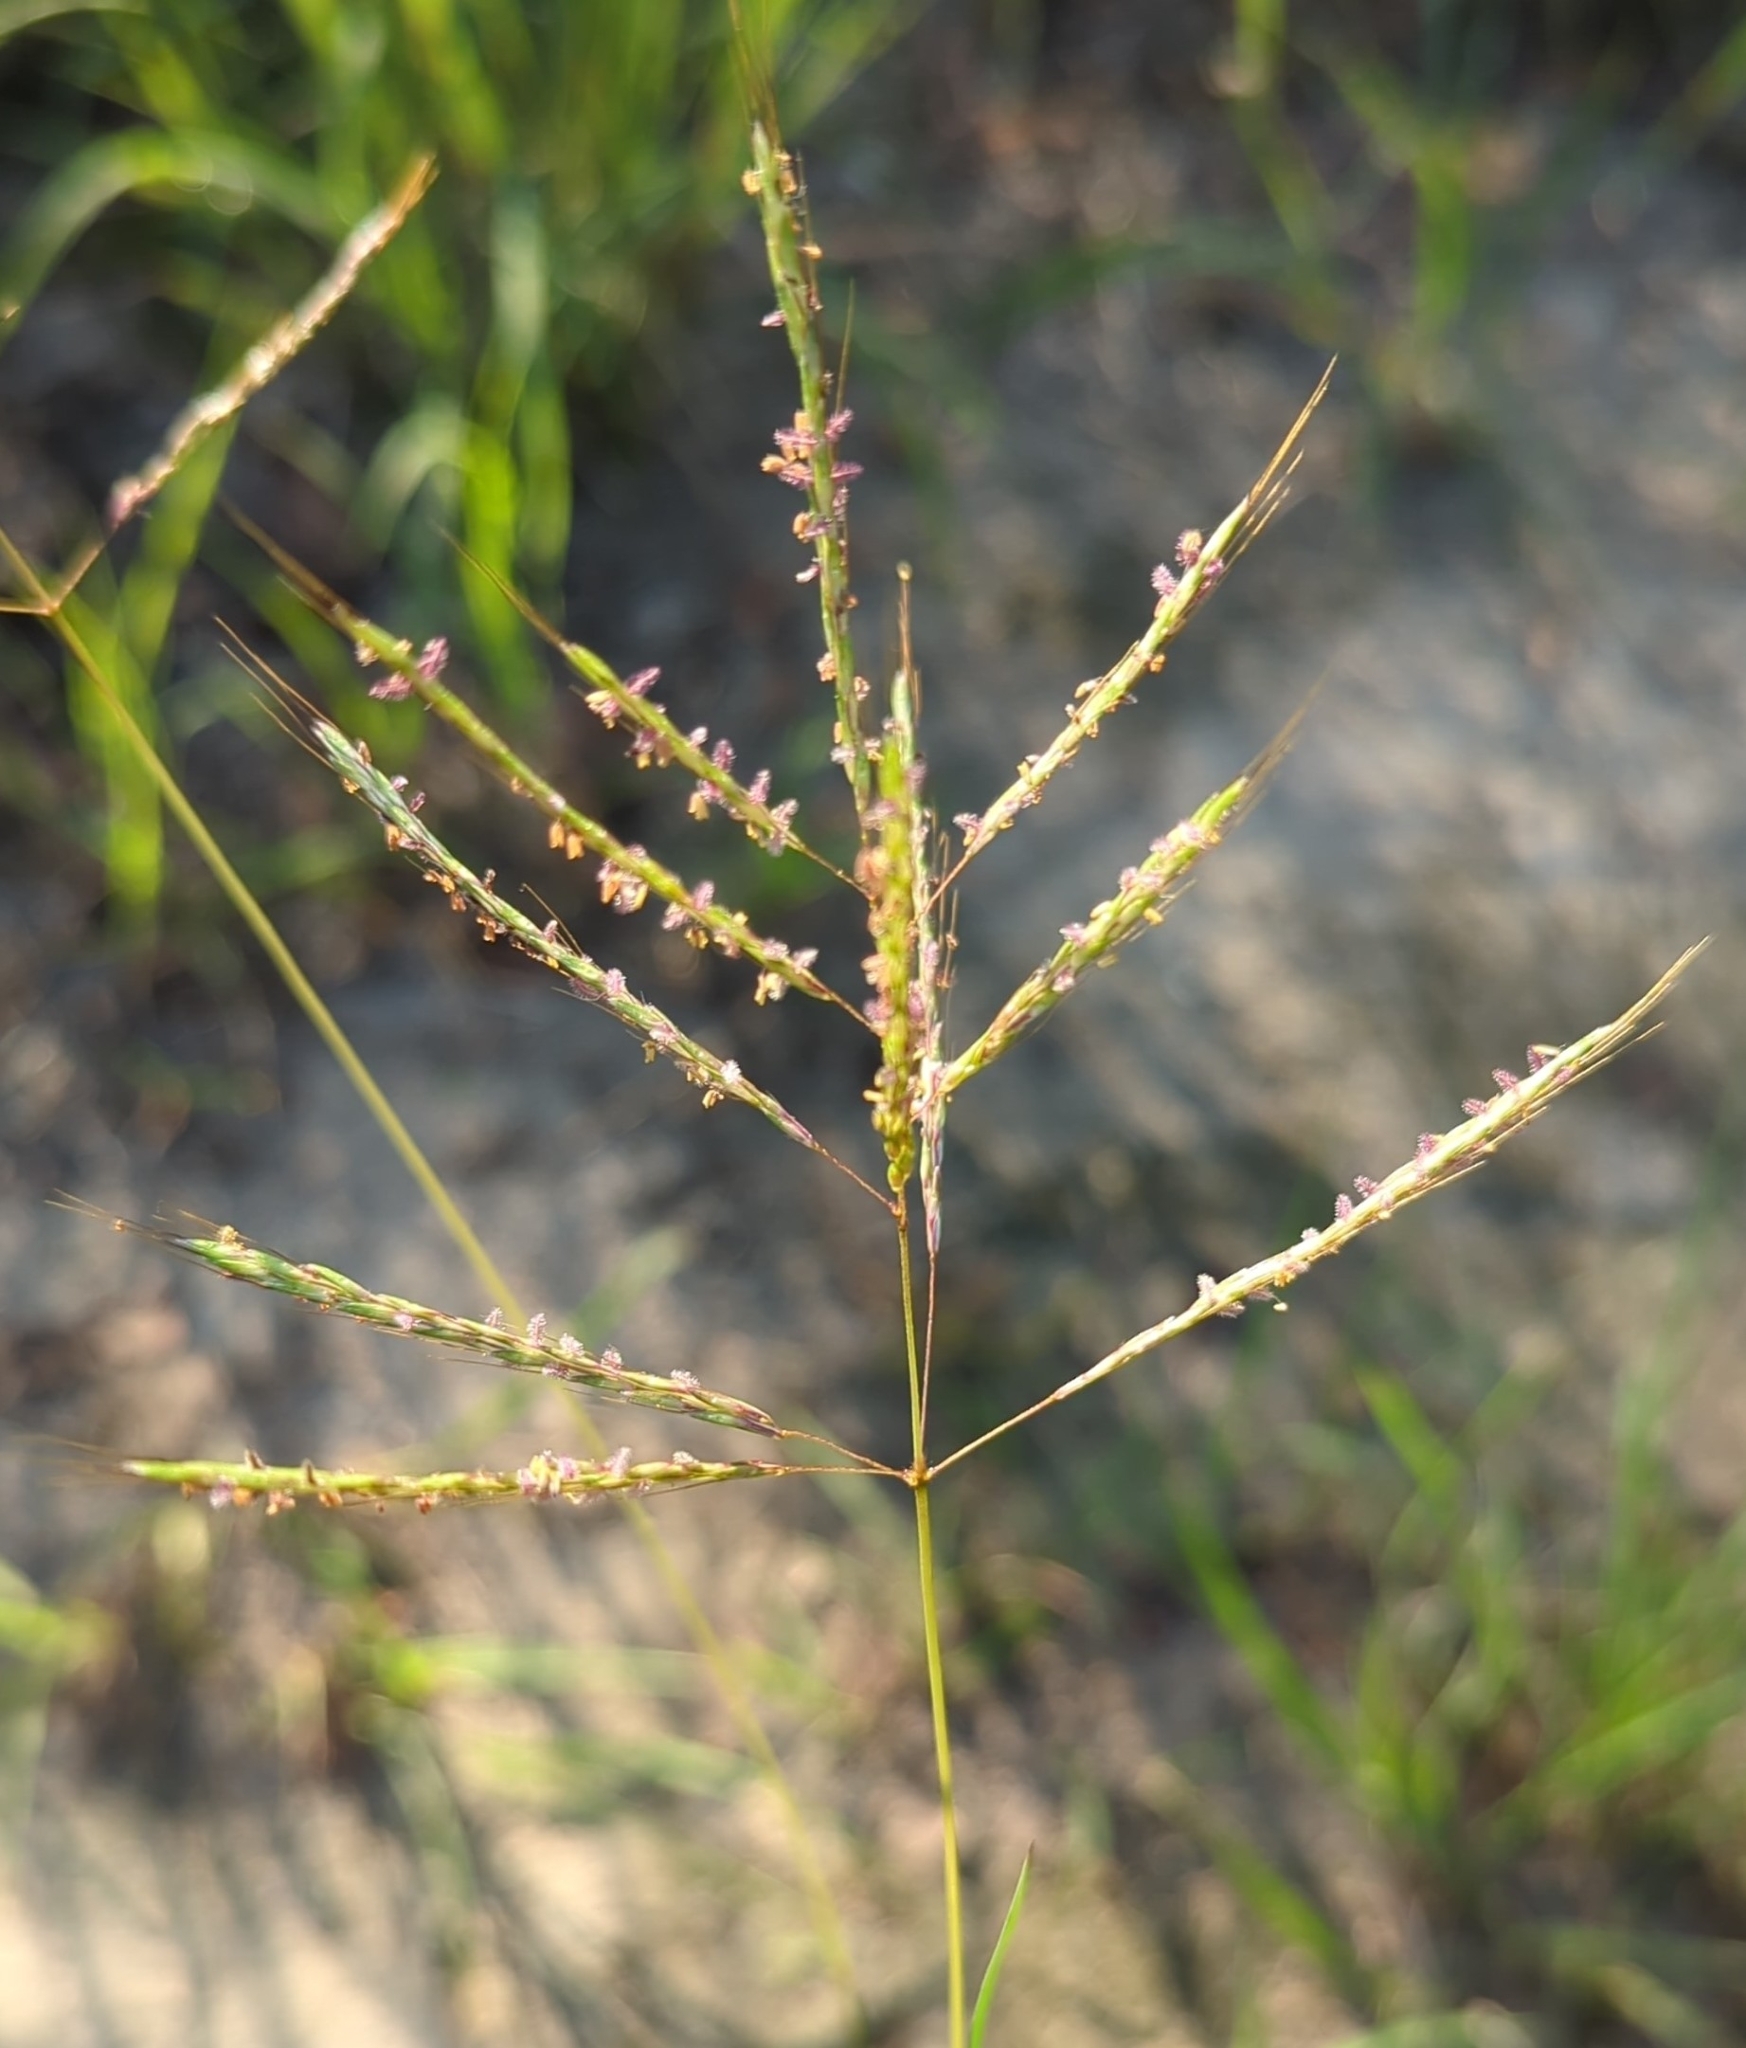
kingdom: Plantae
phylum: Tracheophyta
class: Liliopsida
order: Poales
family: Poaceae
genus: Bothriochloa
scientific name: Bothriochloa bladhii
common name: Caucasian bluestem
